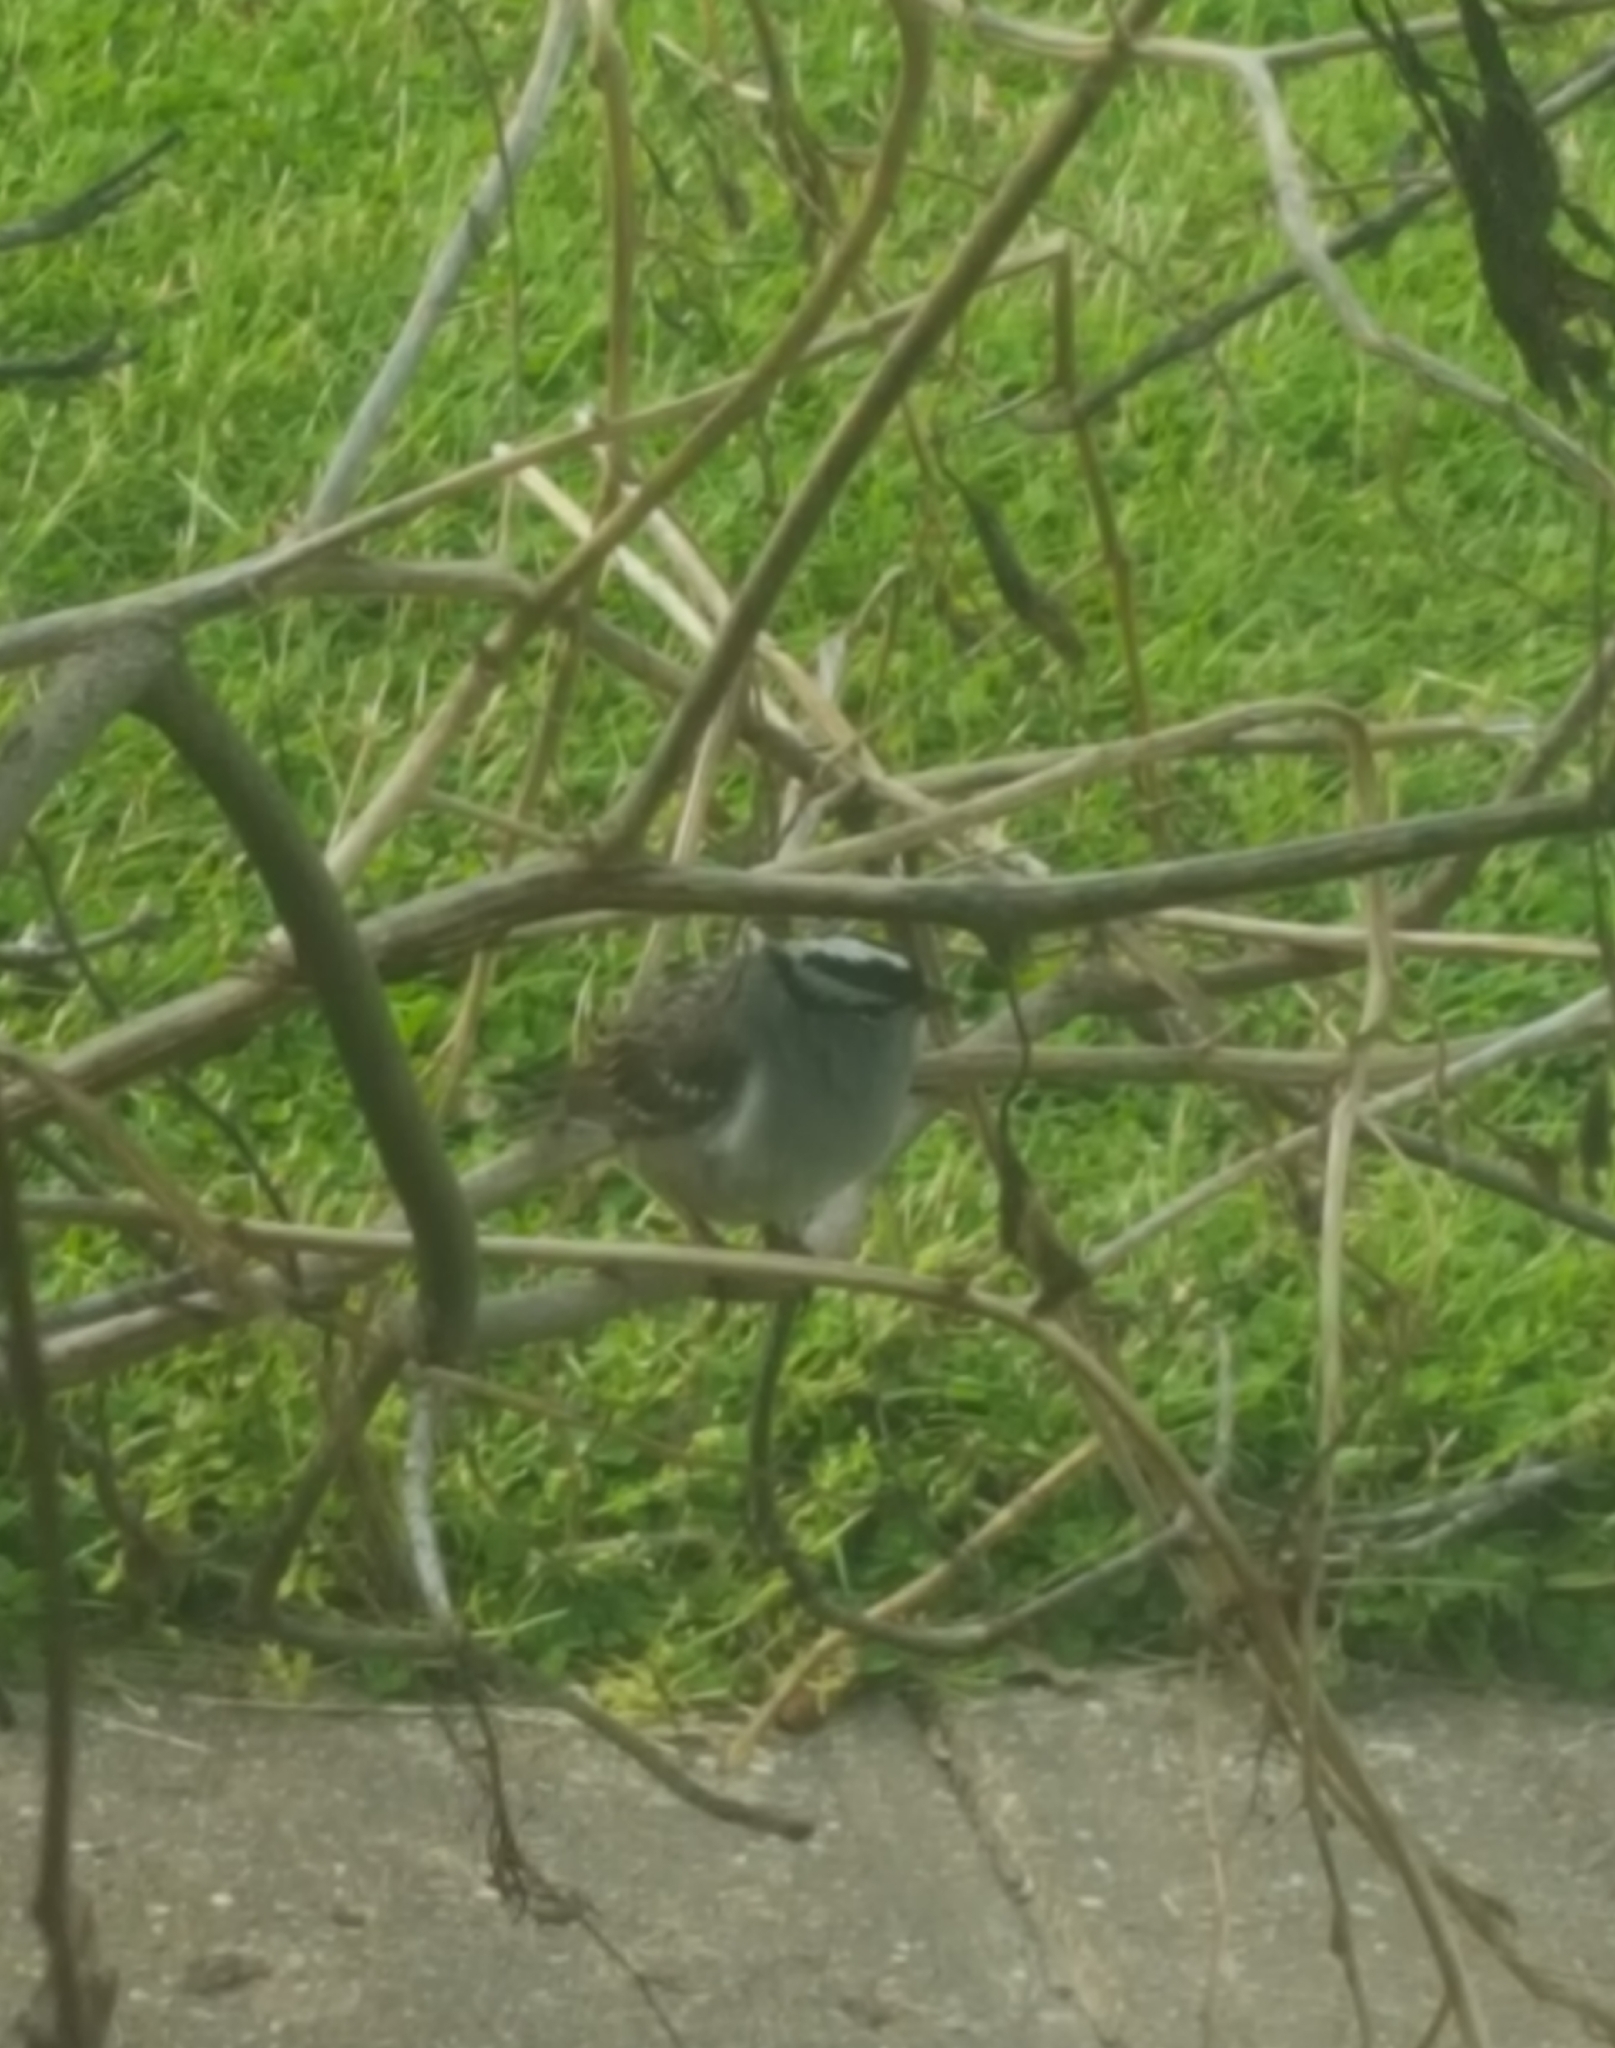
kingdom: Animalia
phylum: Chordata
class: Aves
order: Passeriformes
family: Passerellidae
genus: Zonotrichia
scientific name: Zonotrichia leucophrys
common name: White-crowned sparrow
